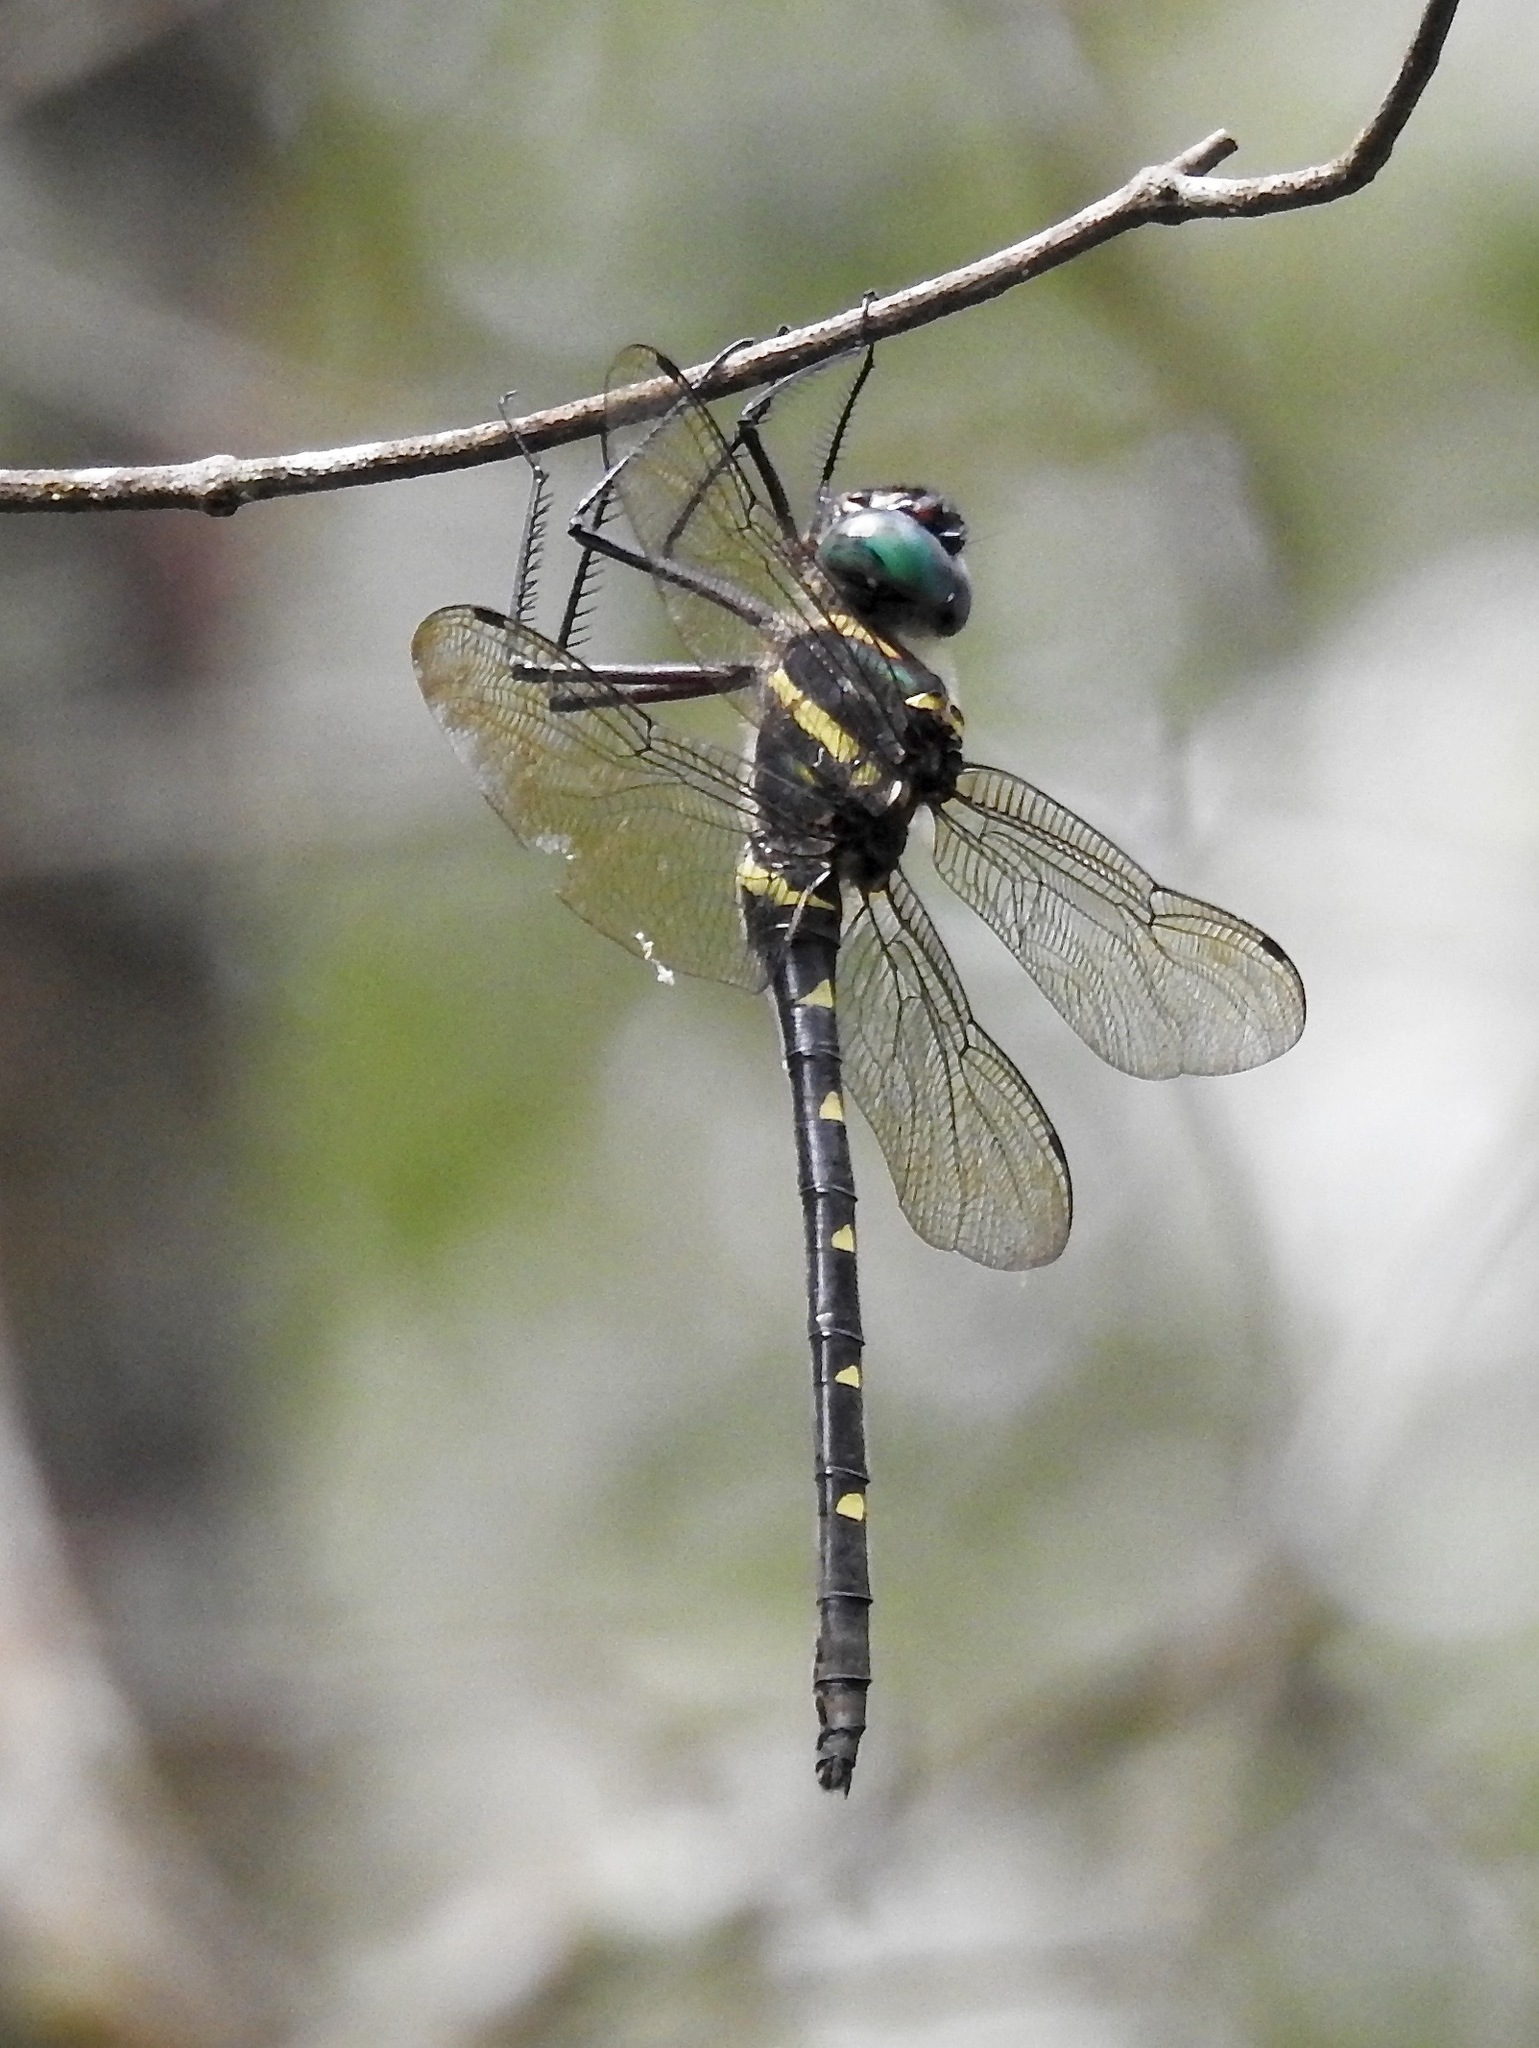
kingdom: Animalia
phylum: Arthropoda
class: Insecta
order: Odonata
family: Macromiidae
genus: Macromia
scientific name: Macromia taeniolata
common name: Royal river cruiser
